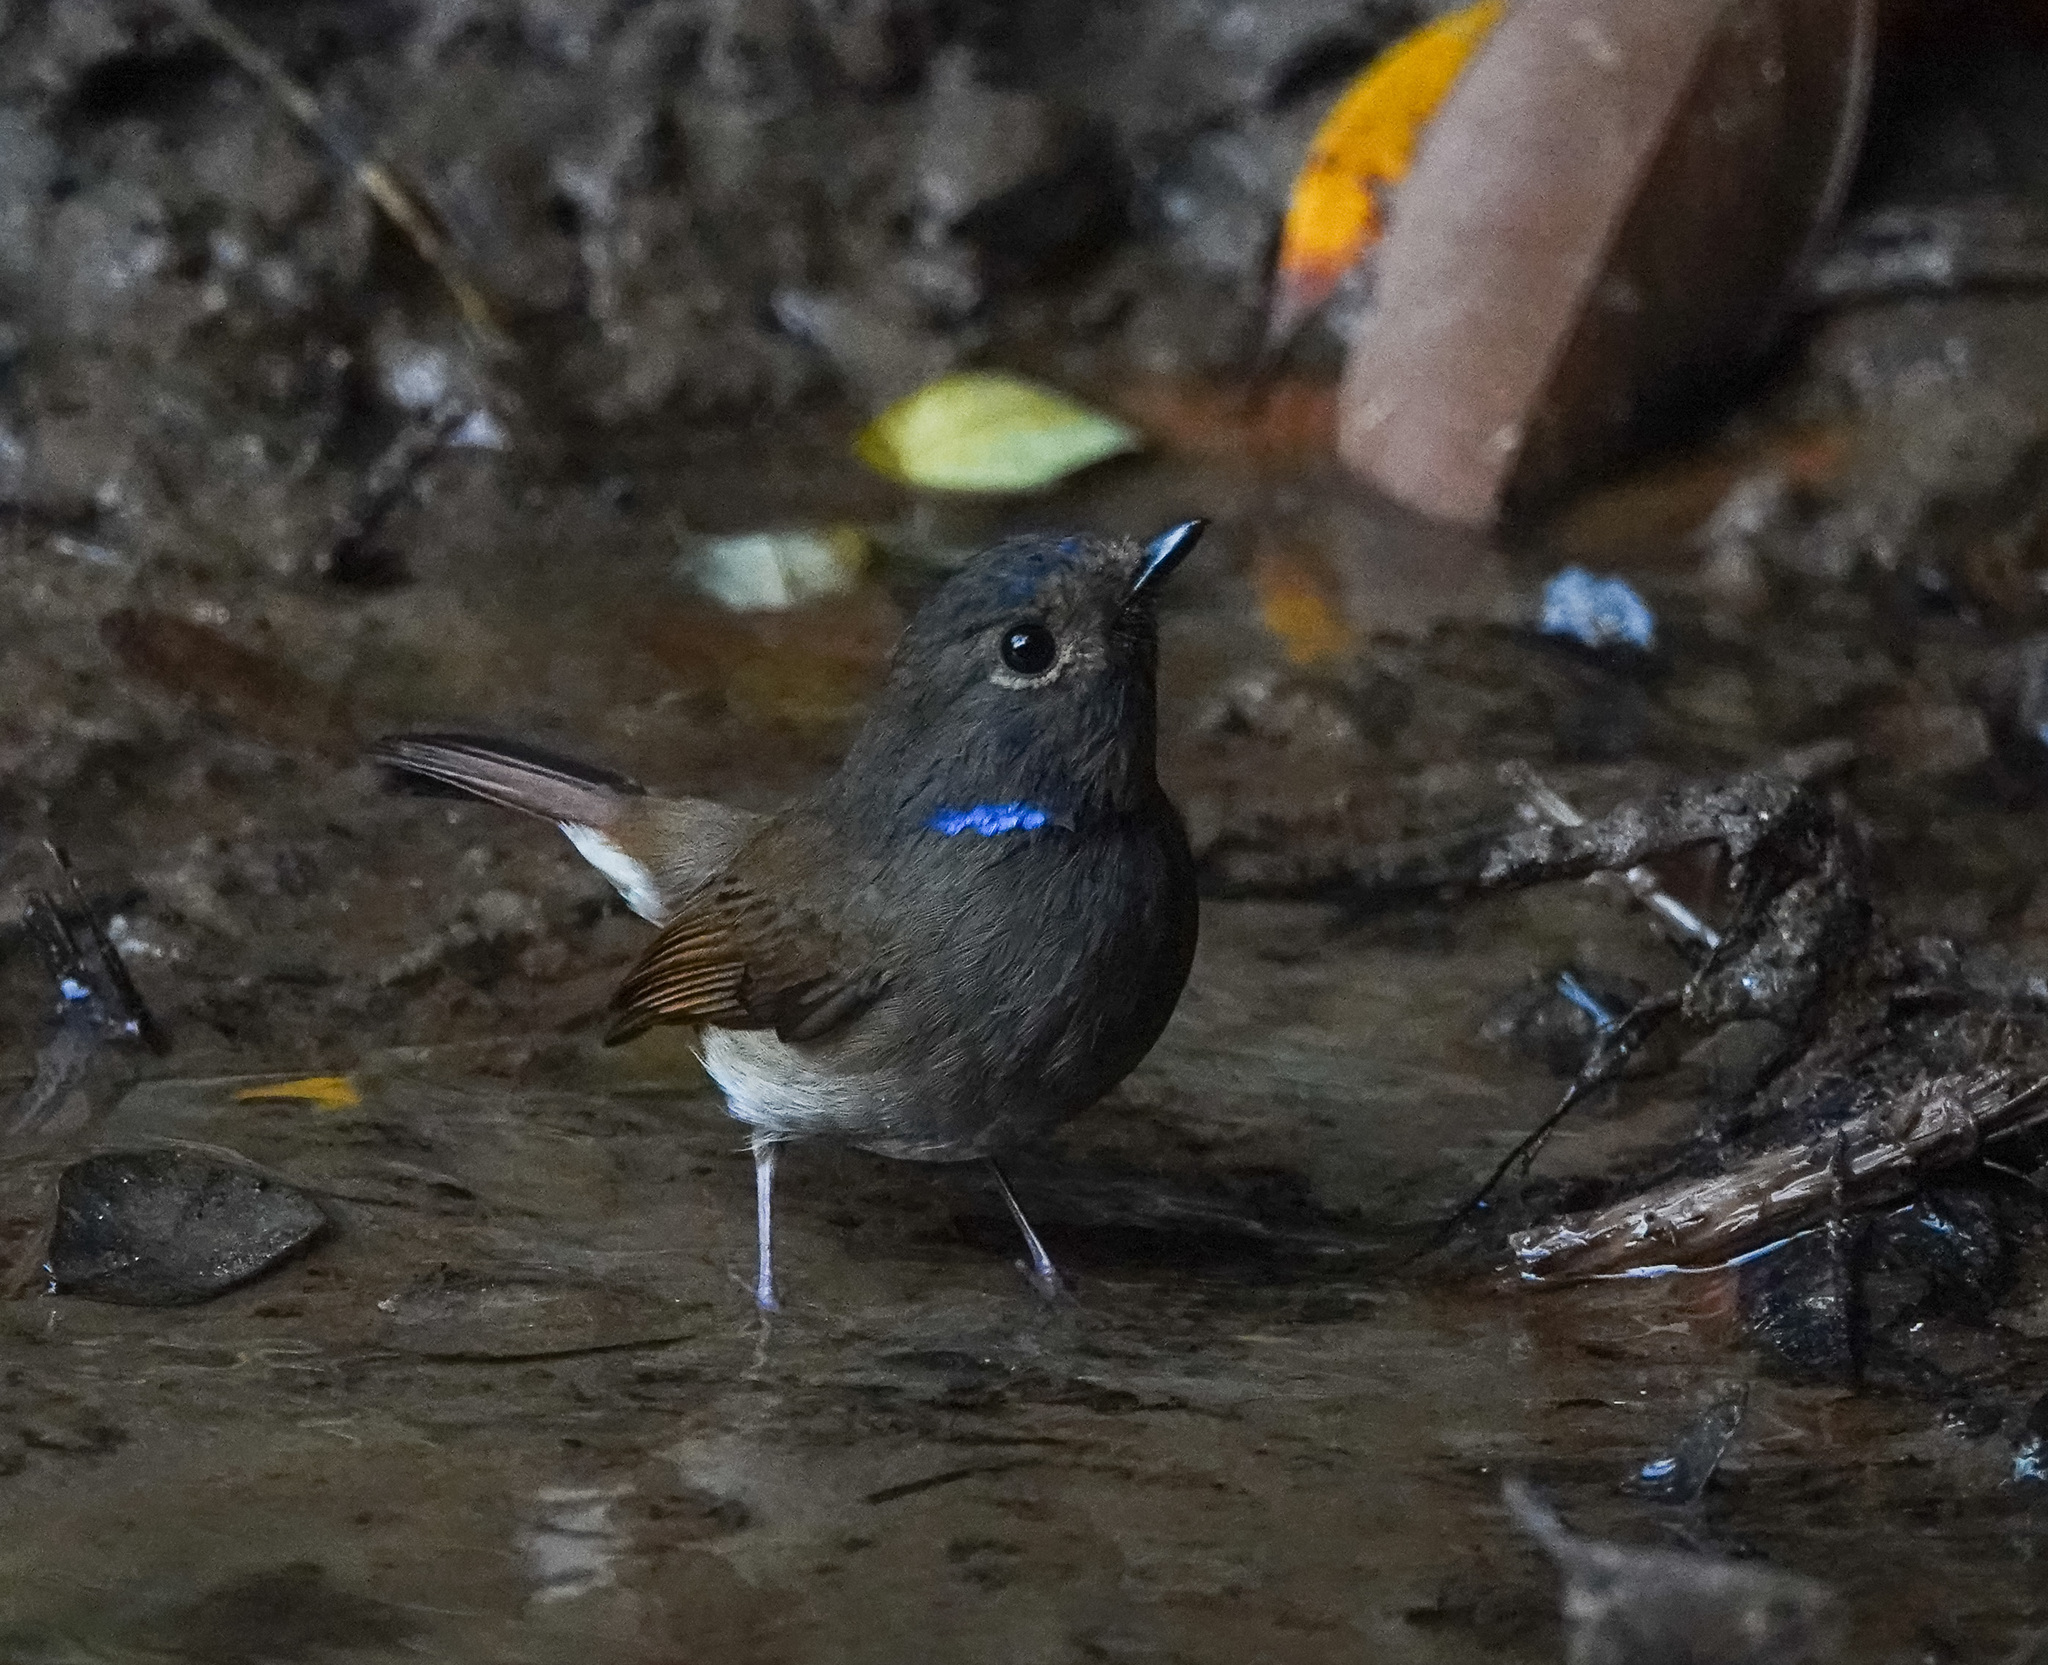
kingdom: Animalia
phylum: Chordata
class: Aves
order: Passeriformes
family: Muscicapidae
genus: Niltava
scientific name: Niltava macgrigoriae
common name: Small niltava
